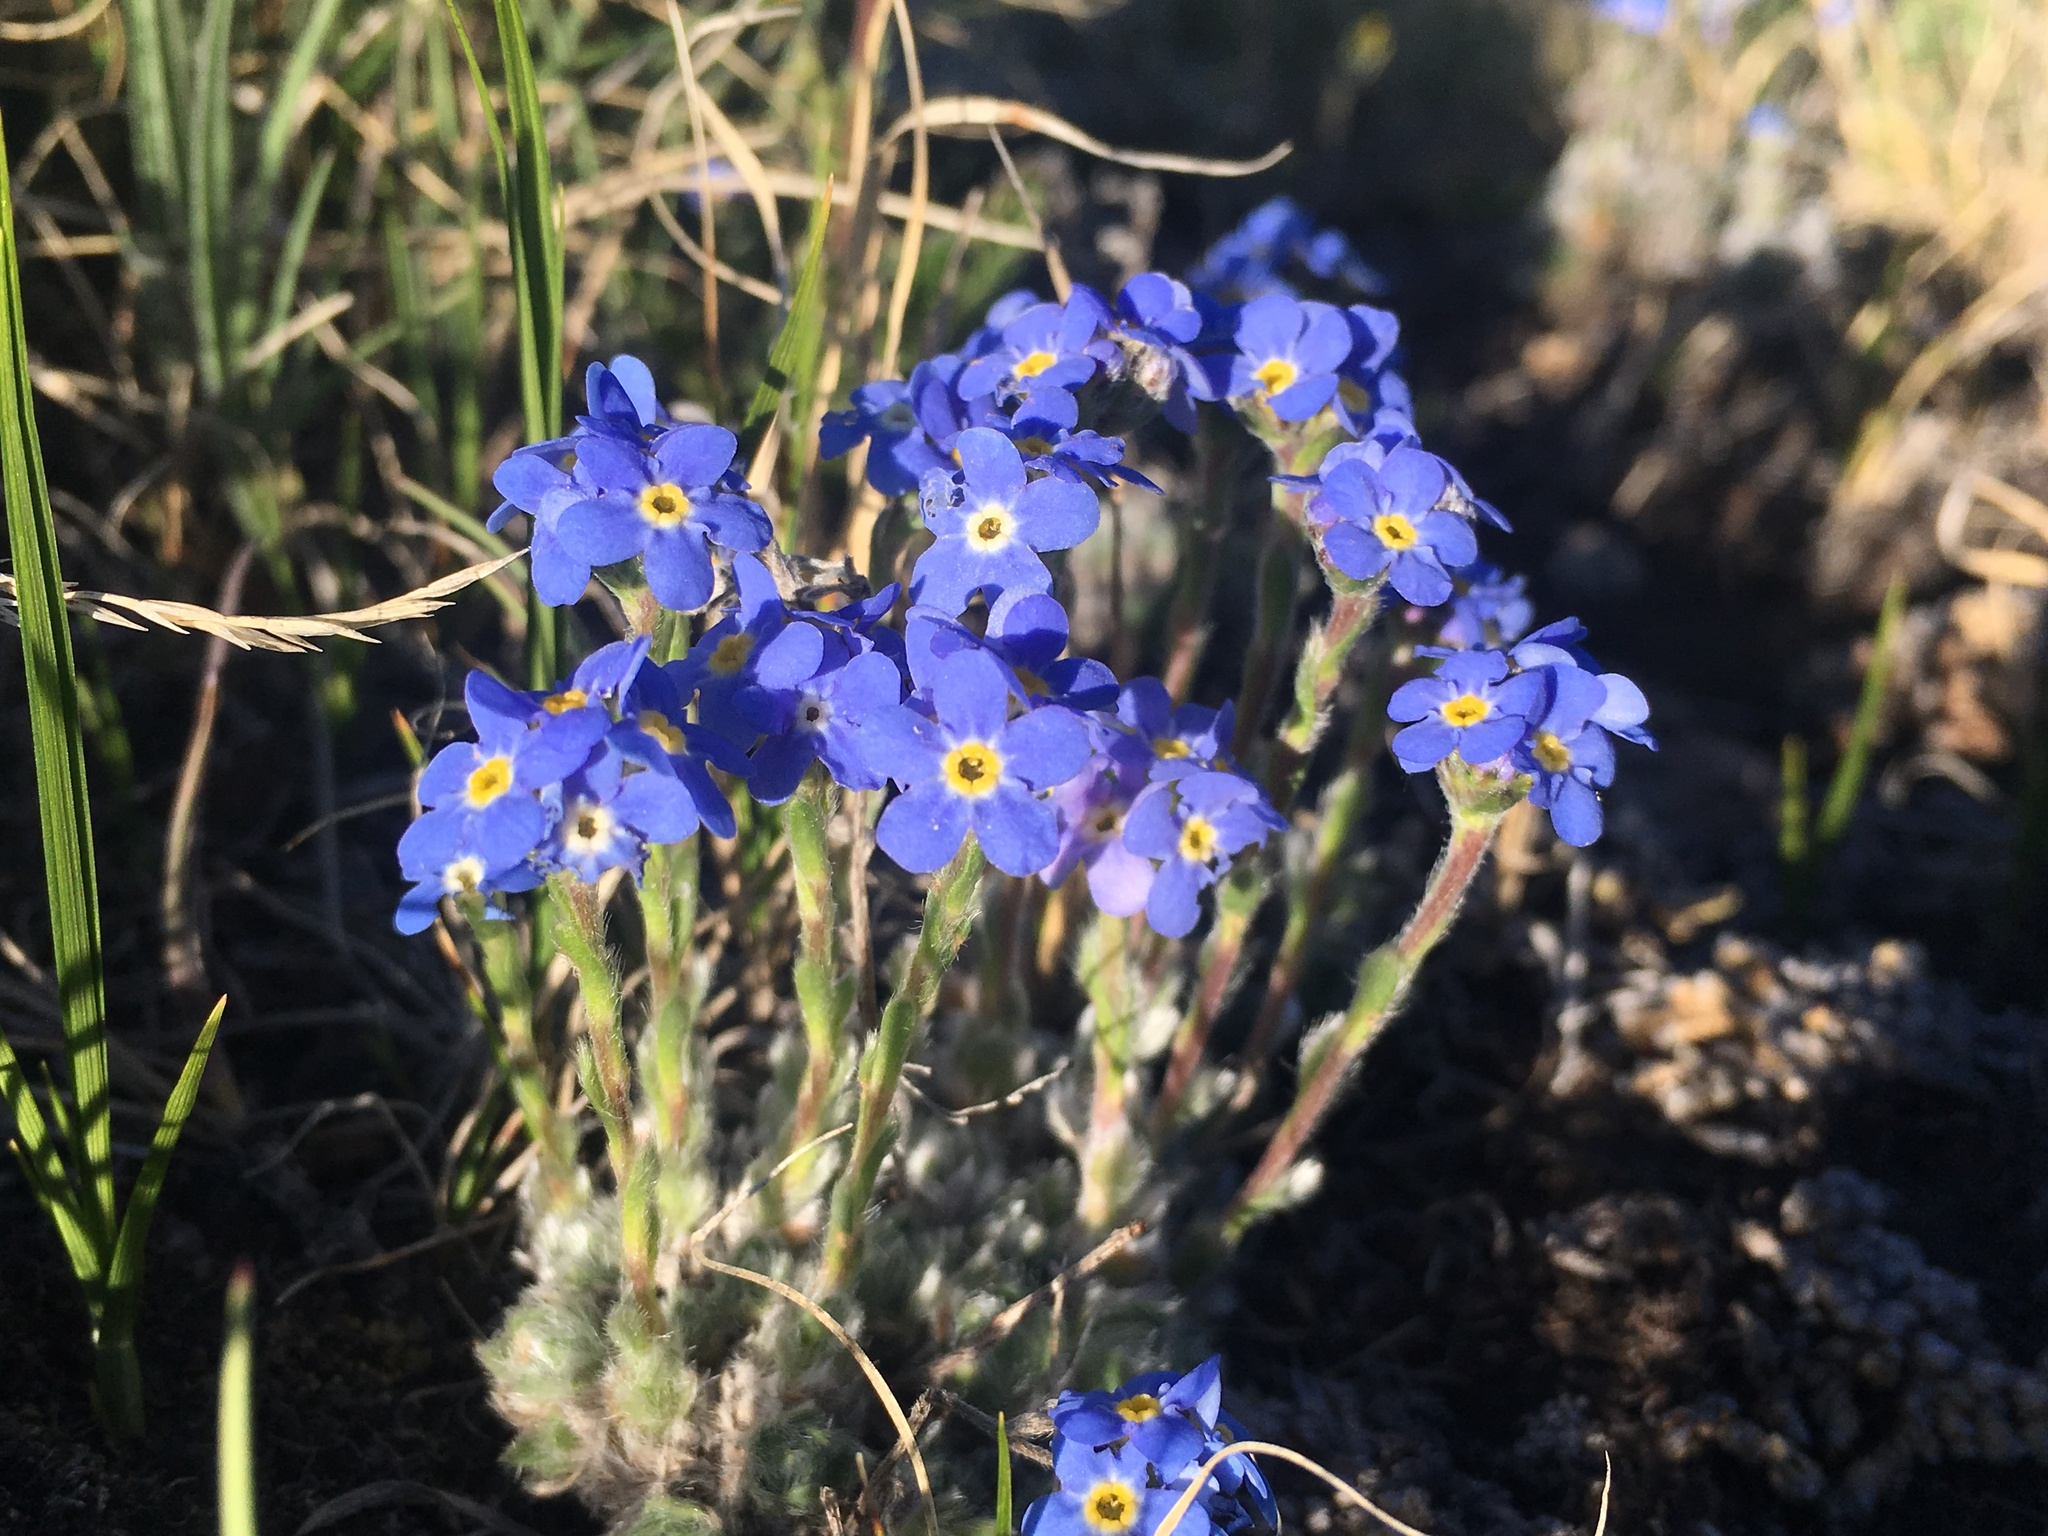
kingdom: Plantae
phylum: Tracheophyta
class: Magnoliopsida
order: Boraginales
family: Boraginaceae
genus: Eritrichium
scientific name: Eritrichium argenteum
